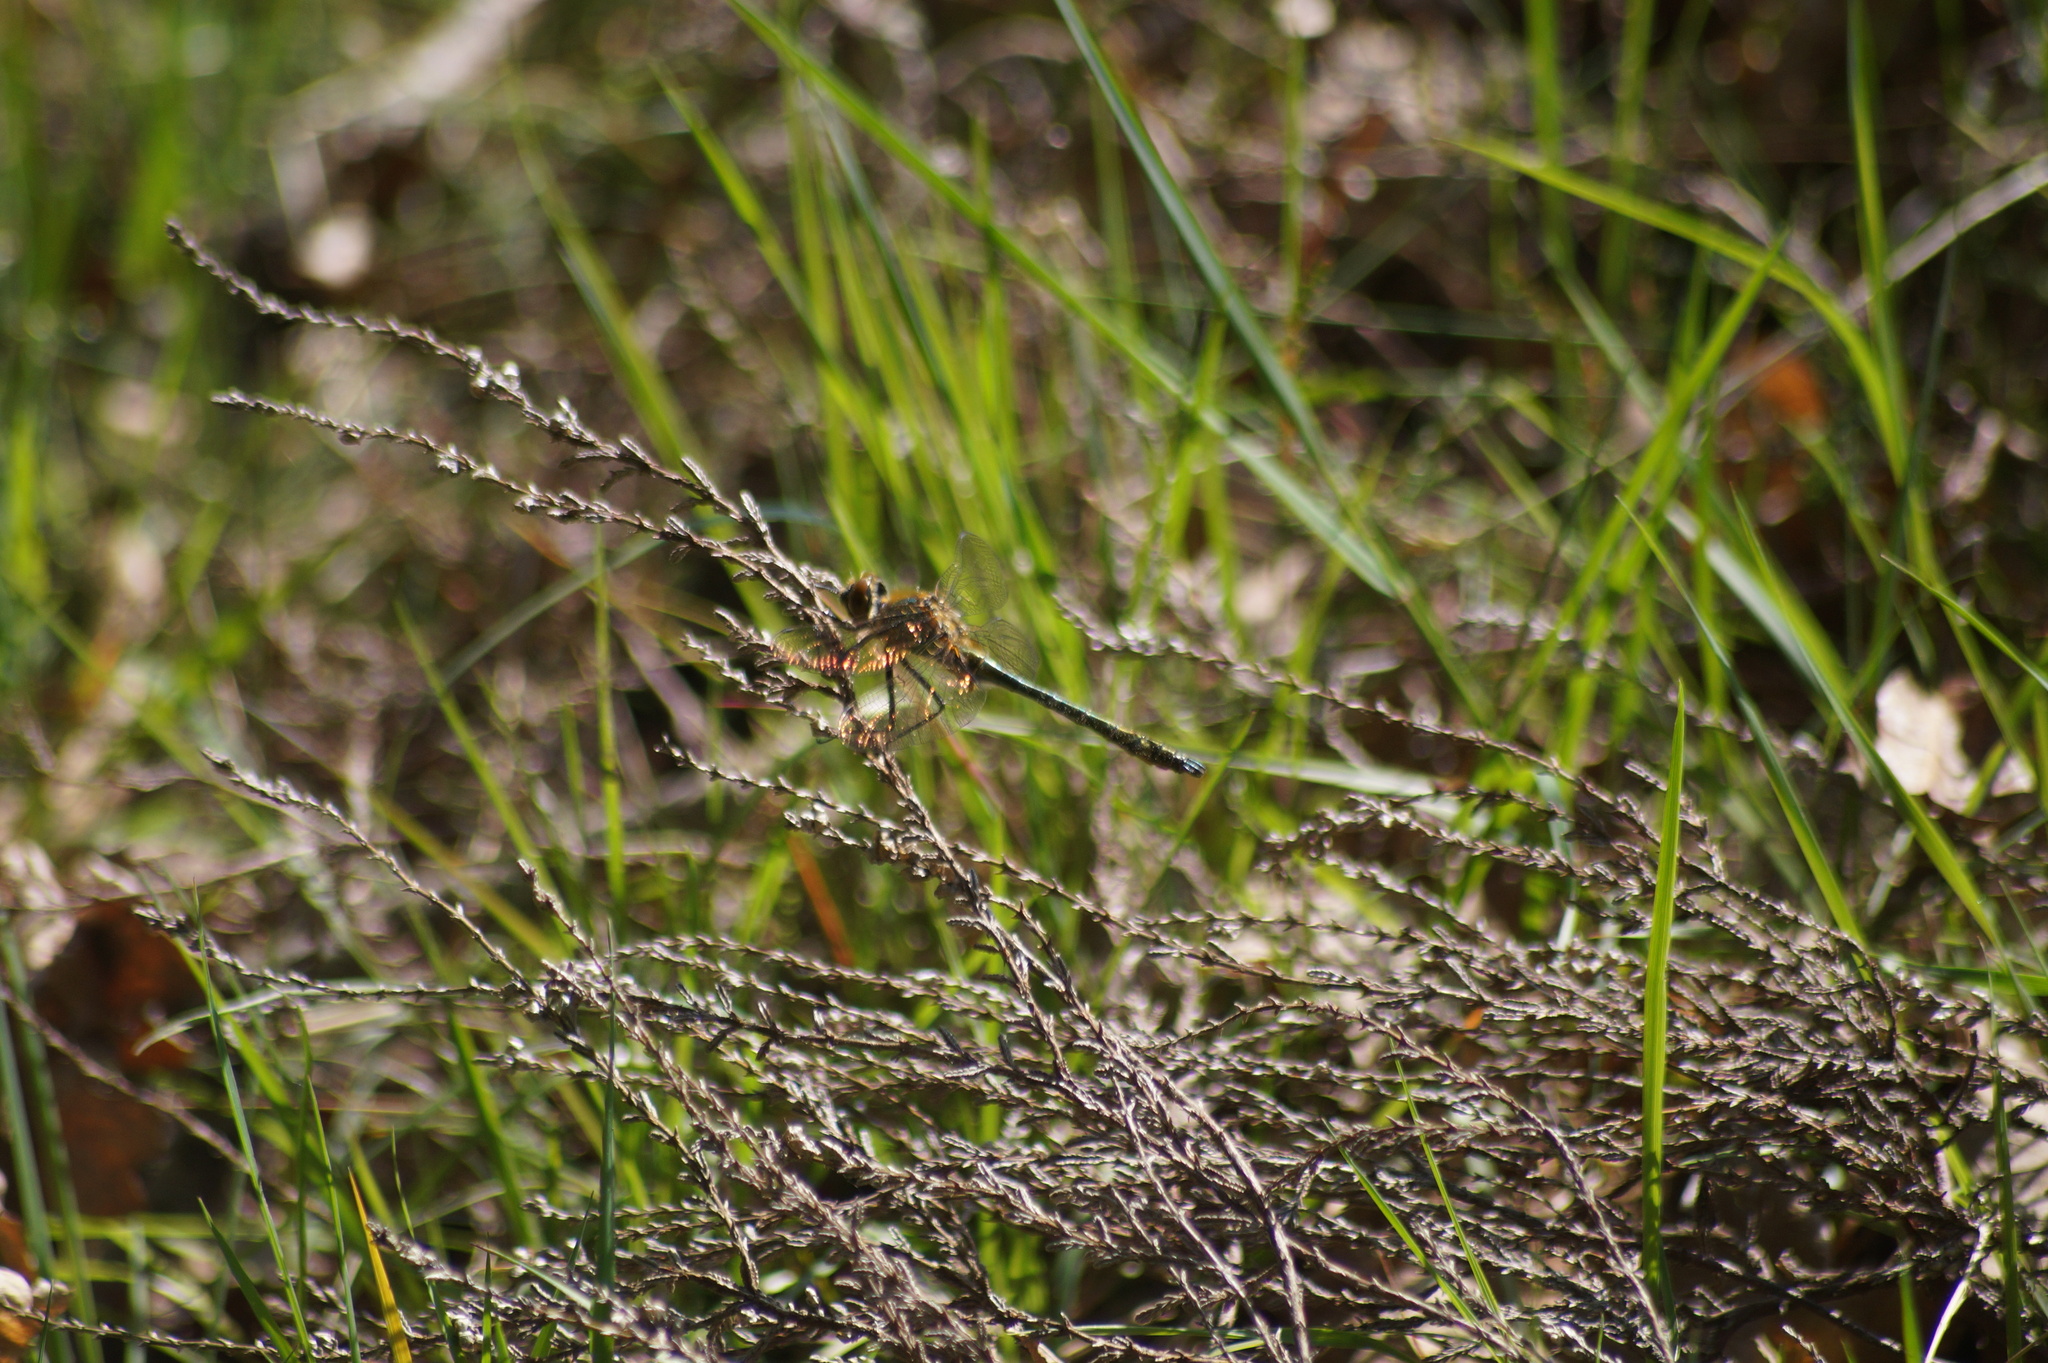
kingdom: Animalia
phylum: Arthropoda
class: Insecta
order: Odonata
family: Corduliidae
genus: Cordulia
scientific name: Cordulia aenea
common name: Downy emerald
